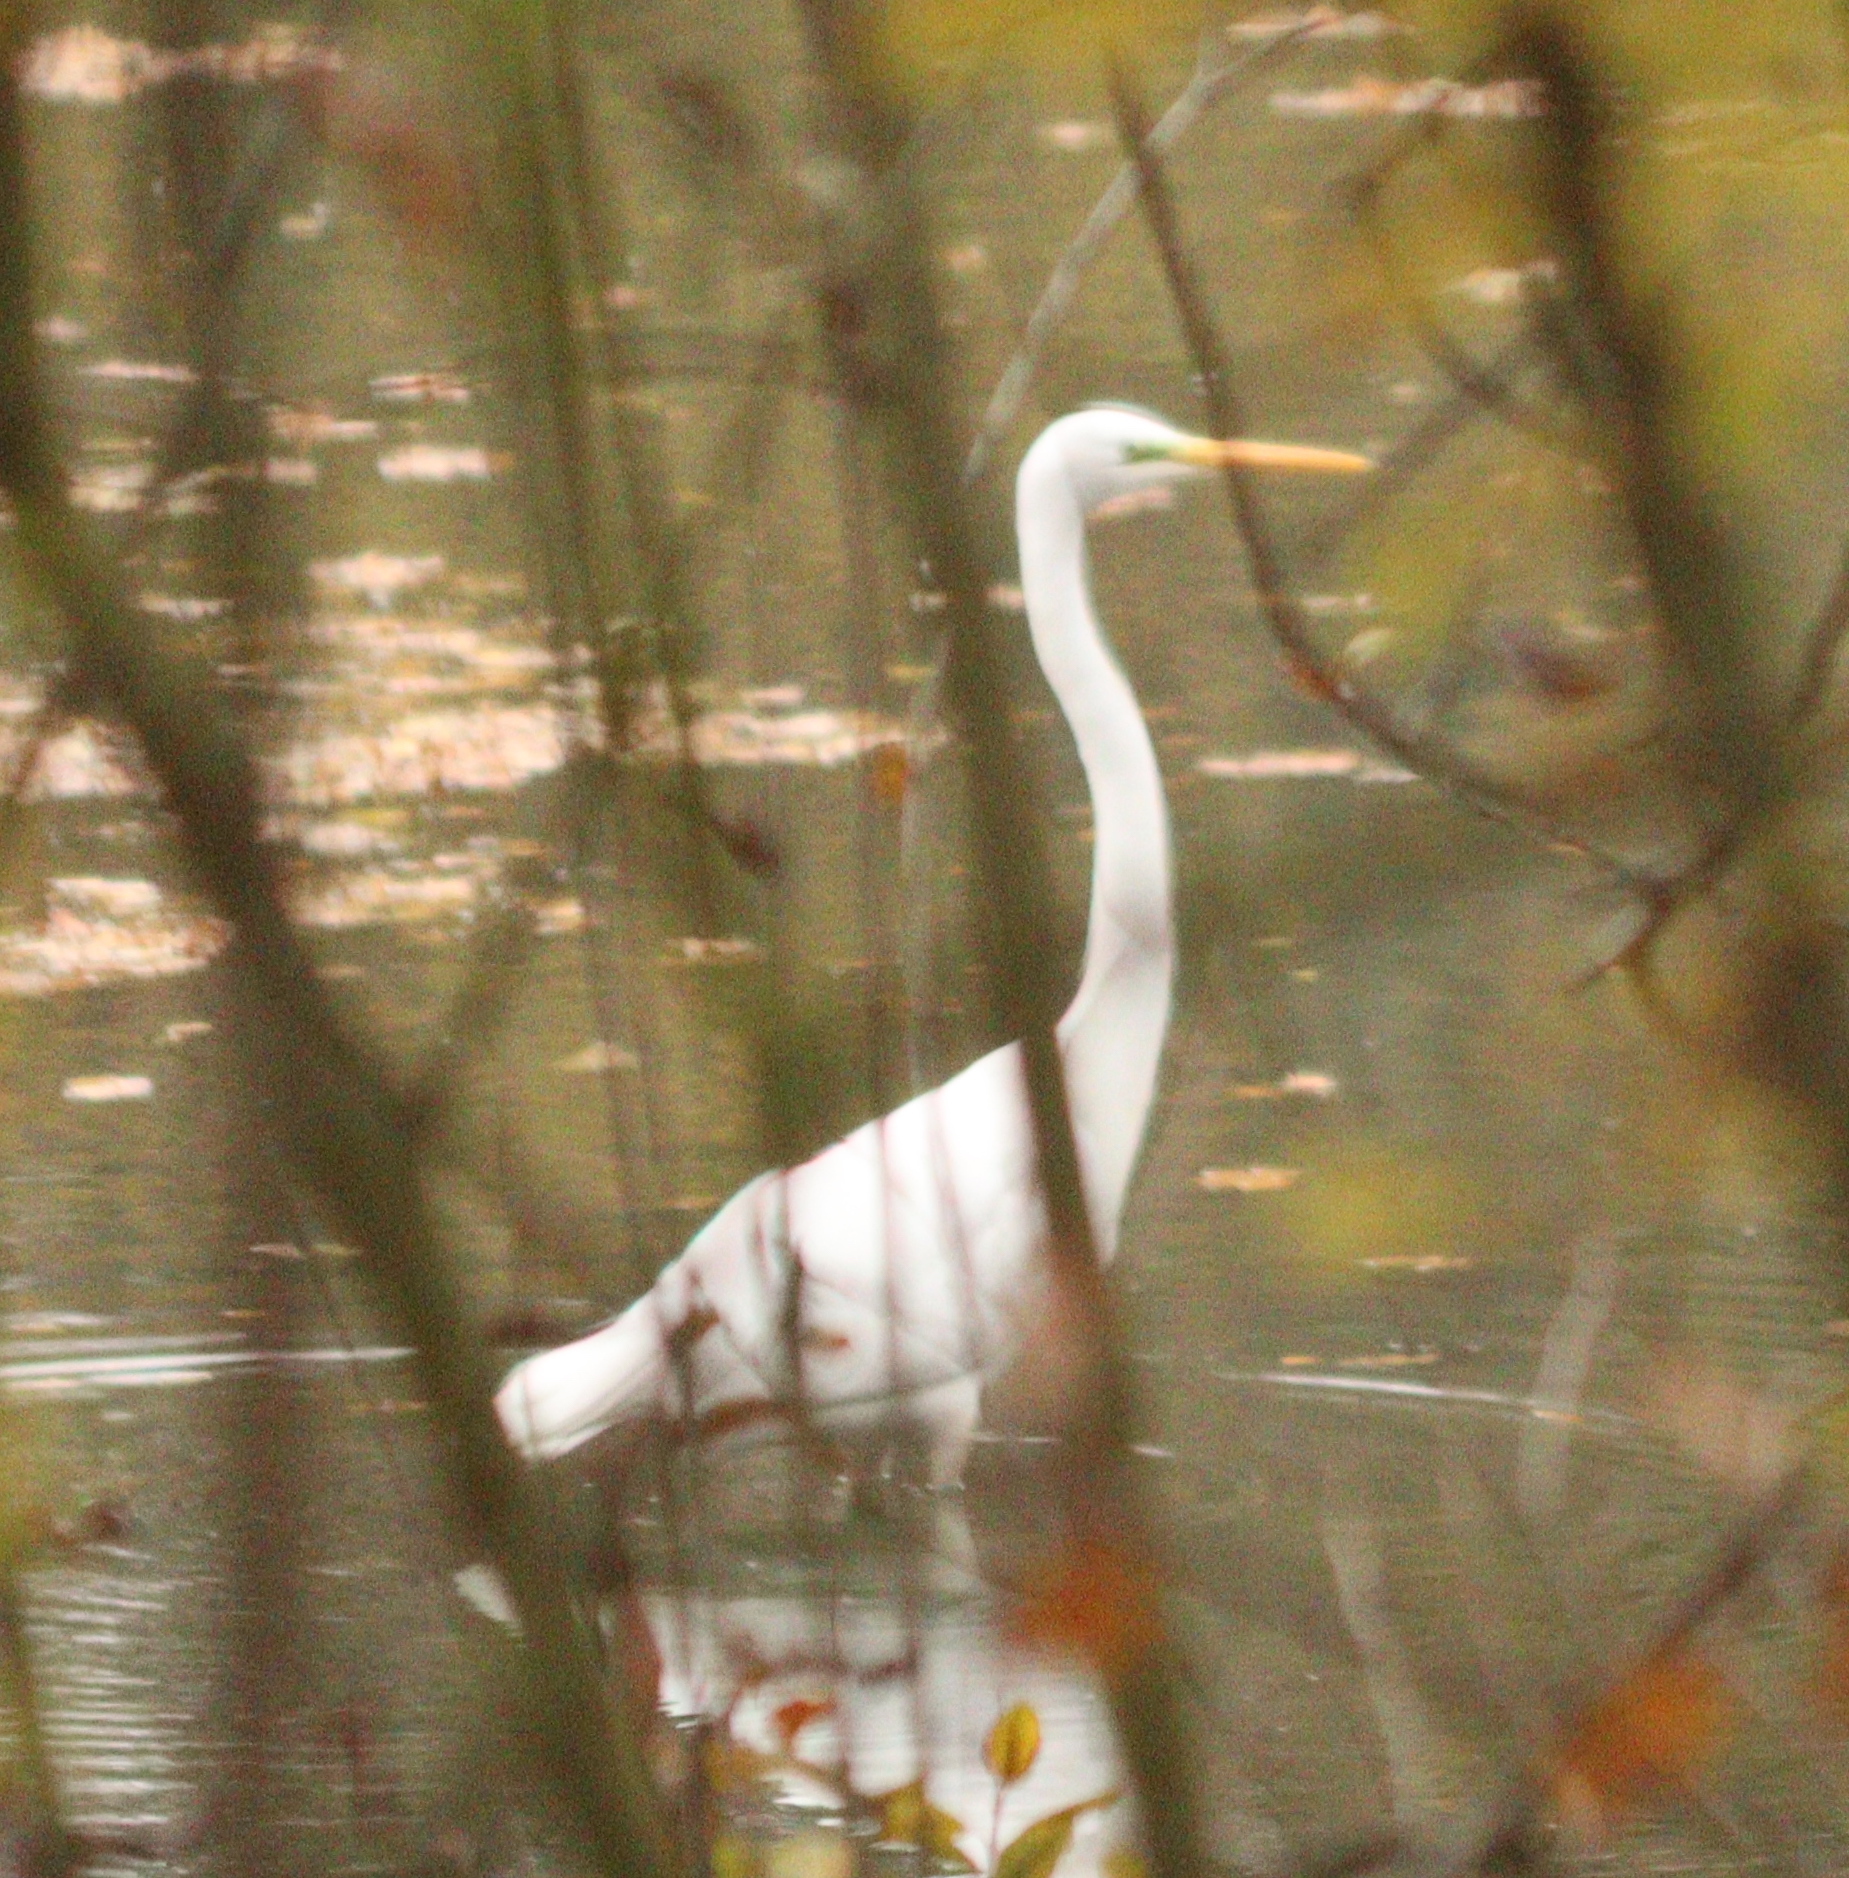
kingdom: Animalia
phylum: Chordata
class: Aves
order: Pelecaniformes
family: Ardeidae
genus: Ardea
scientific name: Ardea alba
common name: Great egret
